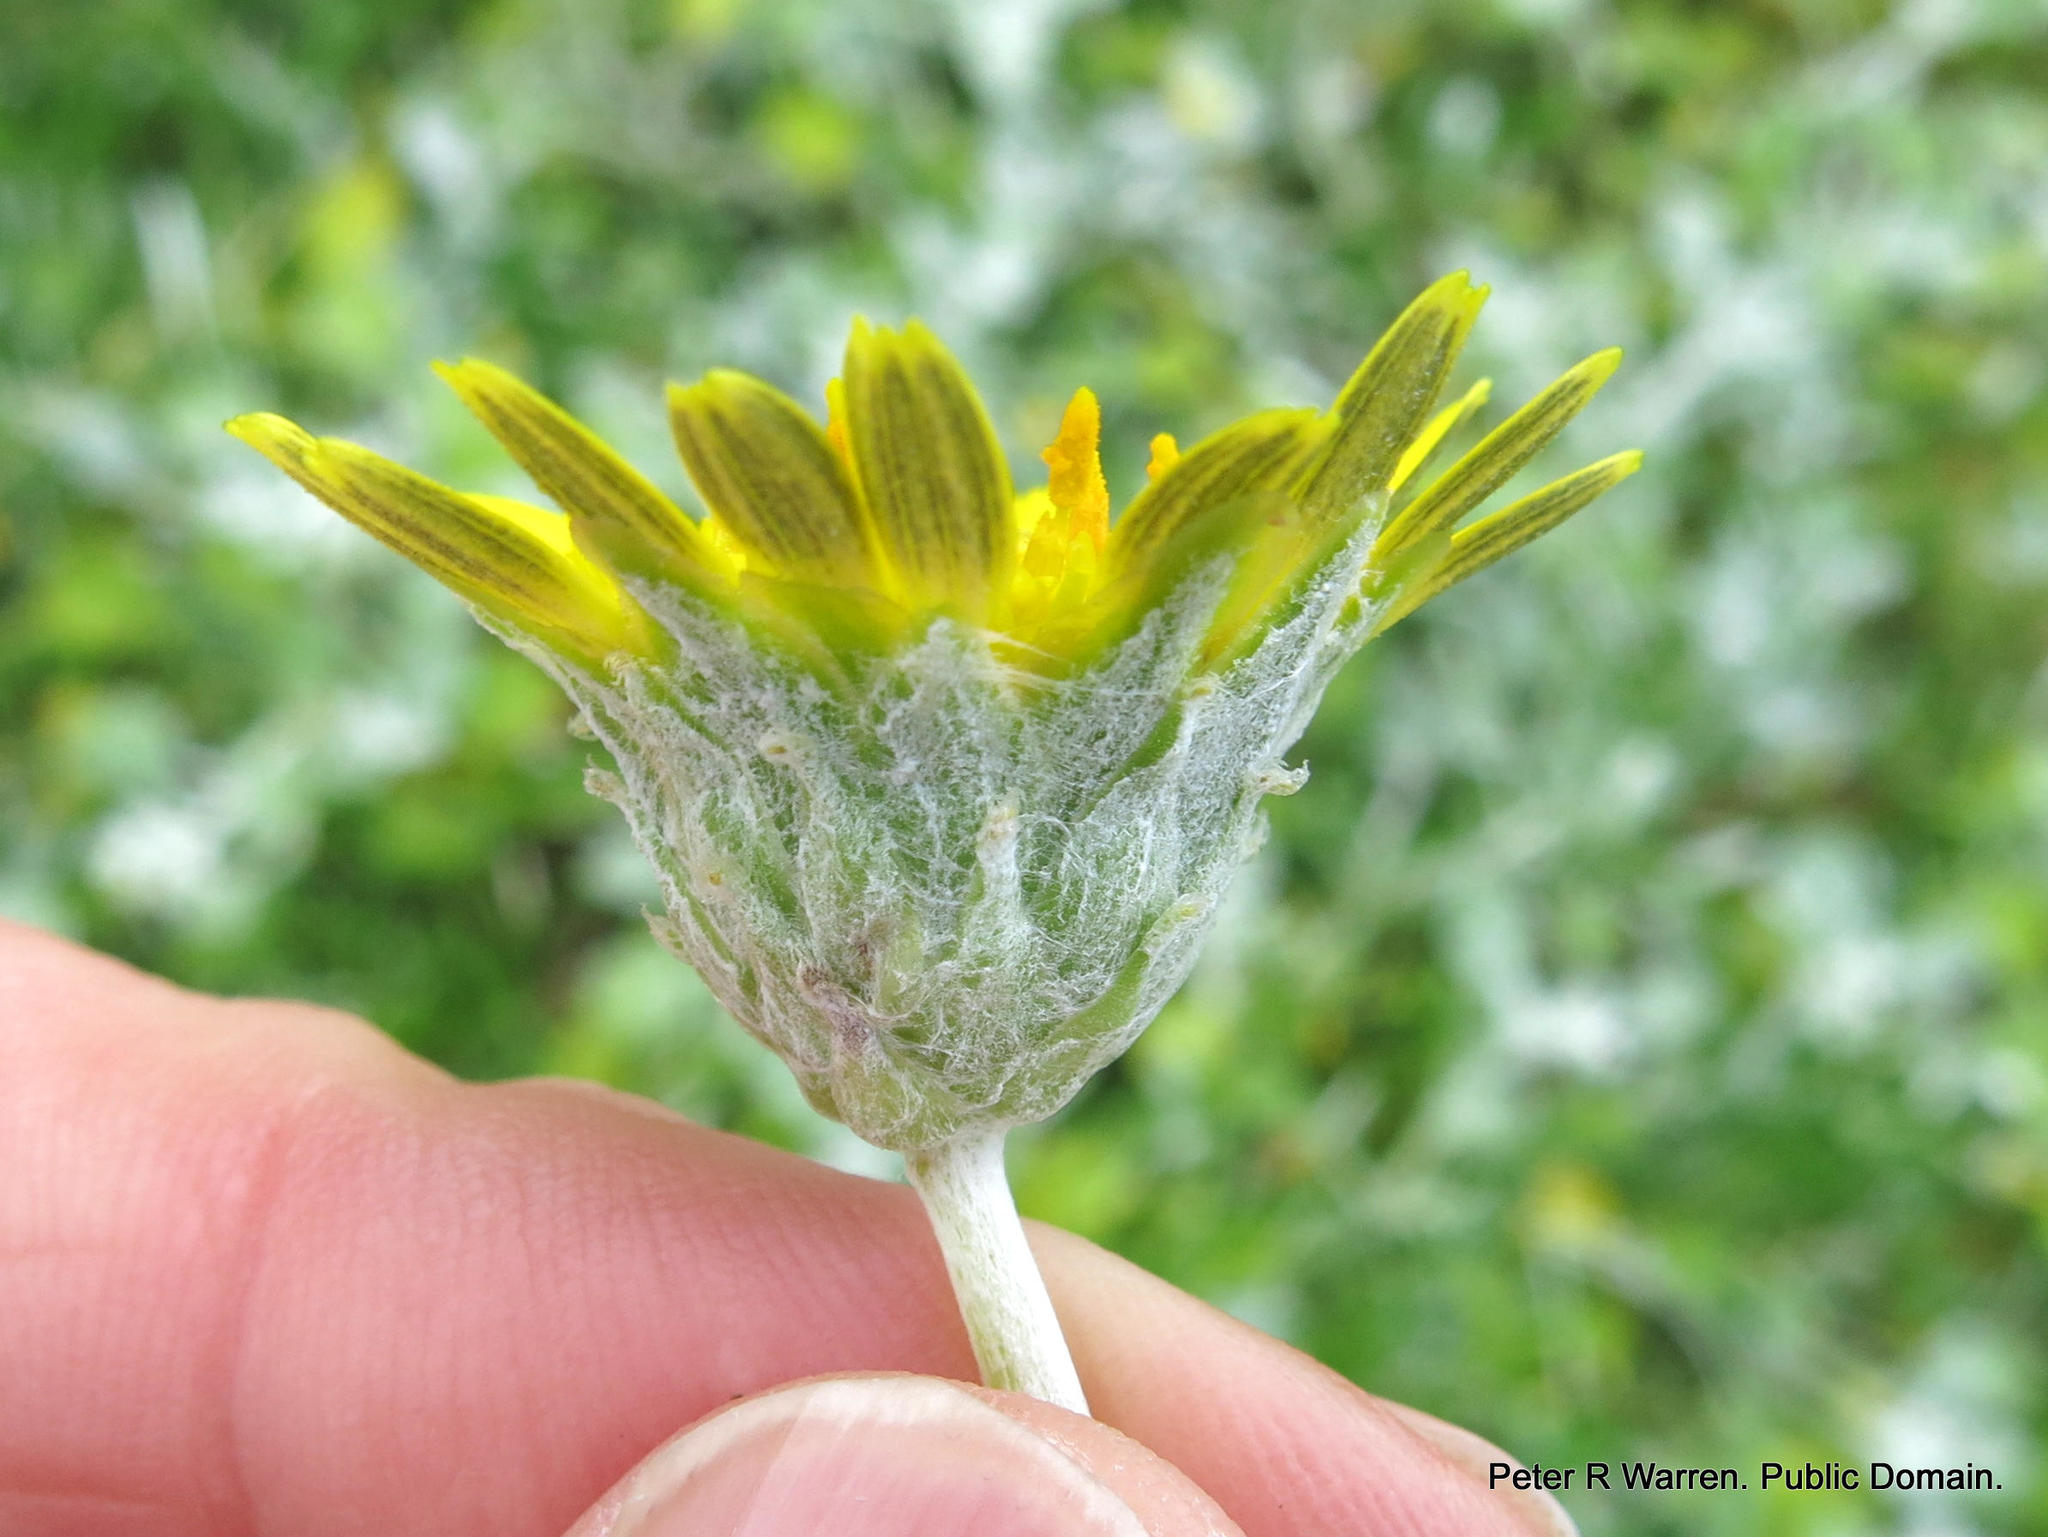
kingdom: Plantae
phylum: Tracheophyta
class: Magnoliopsida
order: Asterales
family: Asteraceae
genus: Arctotheca
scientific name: Arctotheca populifolia
